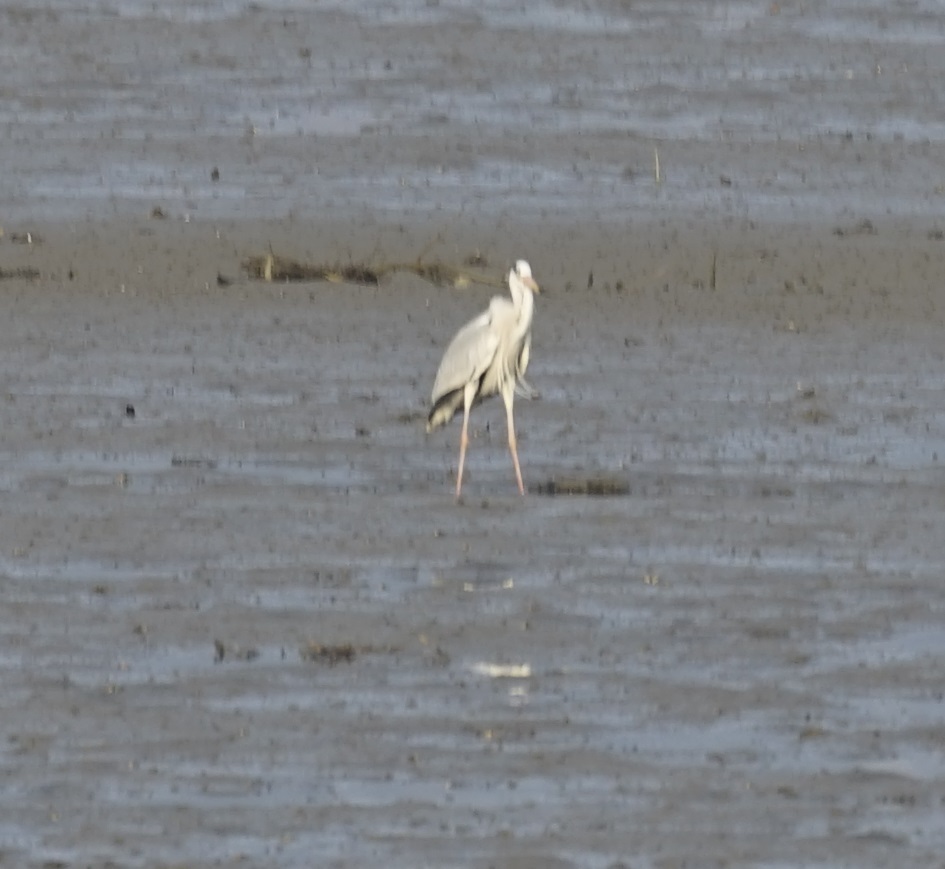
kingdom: Animalia
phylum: Chordata
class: Aves
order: Pelecaniformes
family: Ardeidae
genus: Ardea
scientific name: Ardea cinerea
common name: Grey heron
